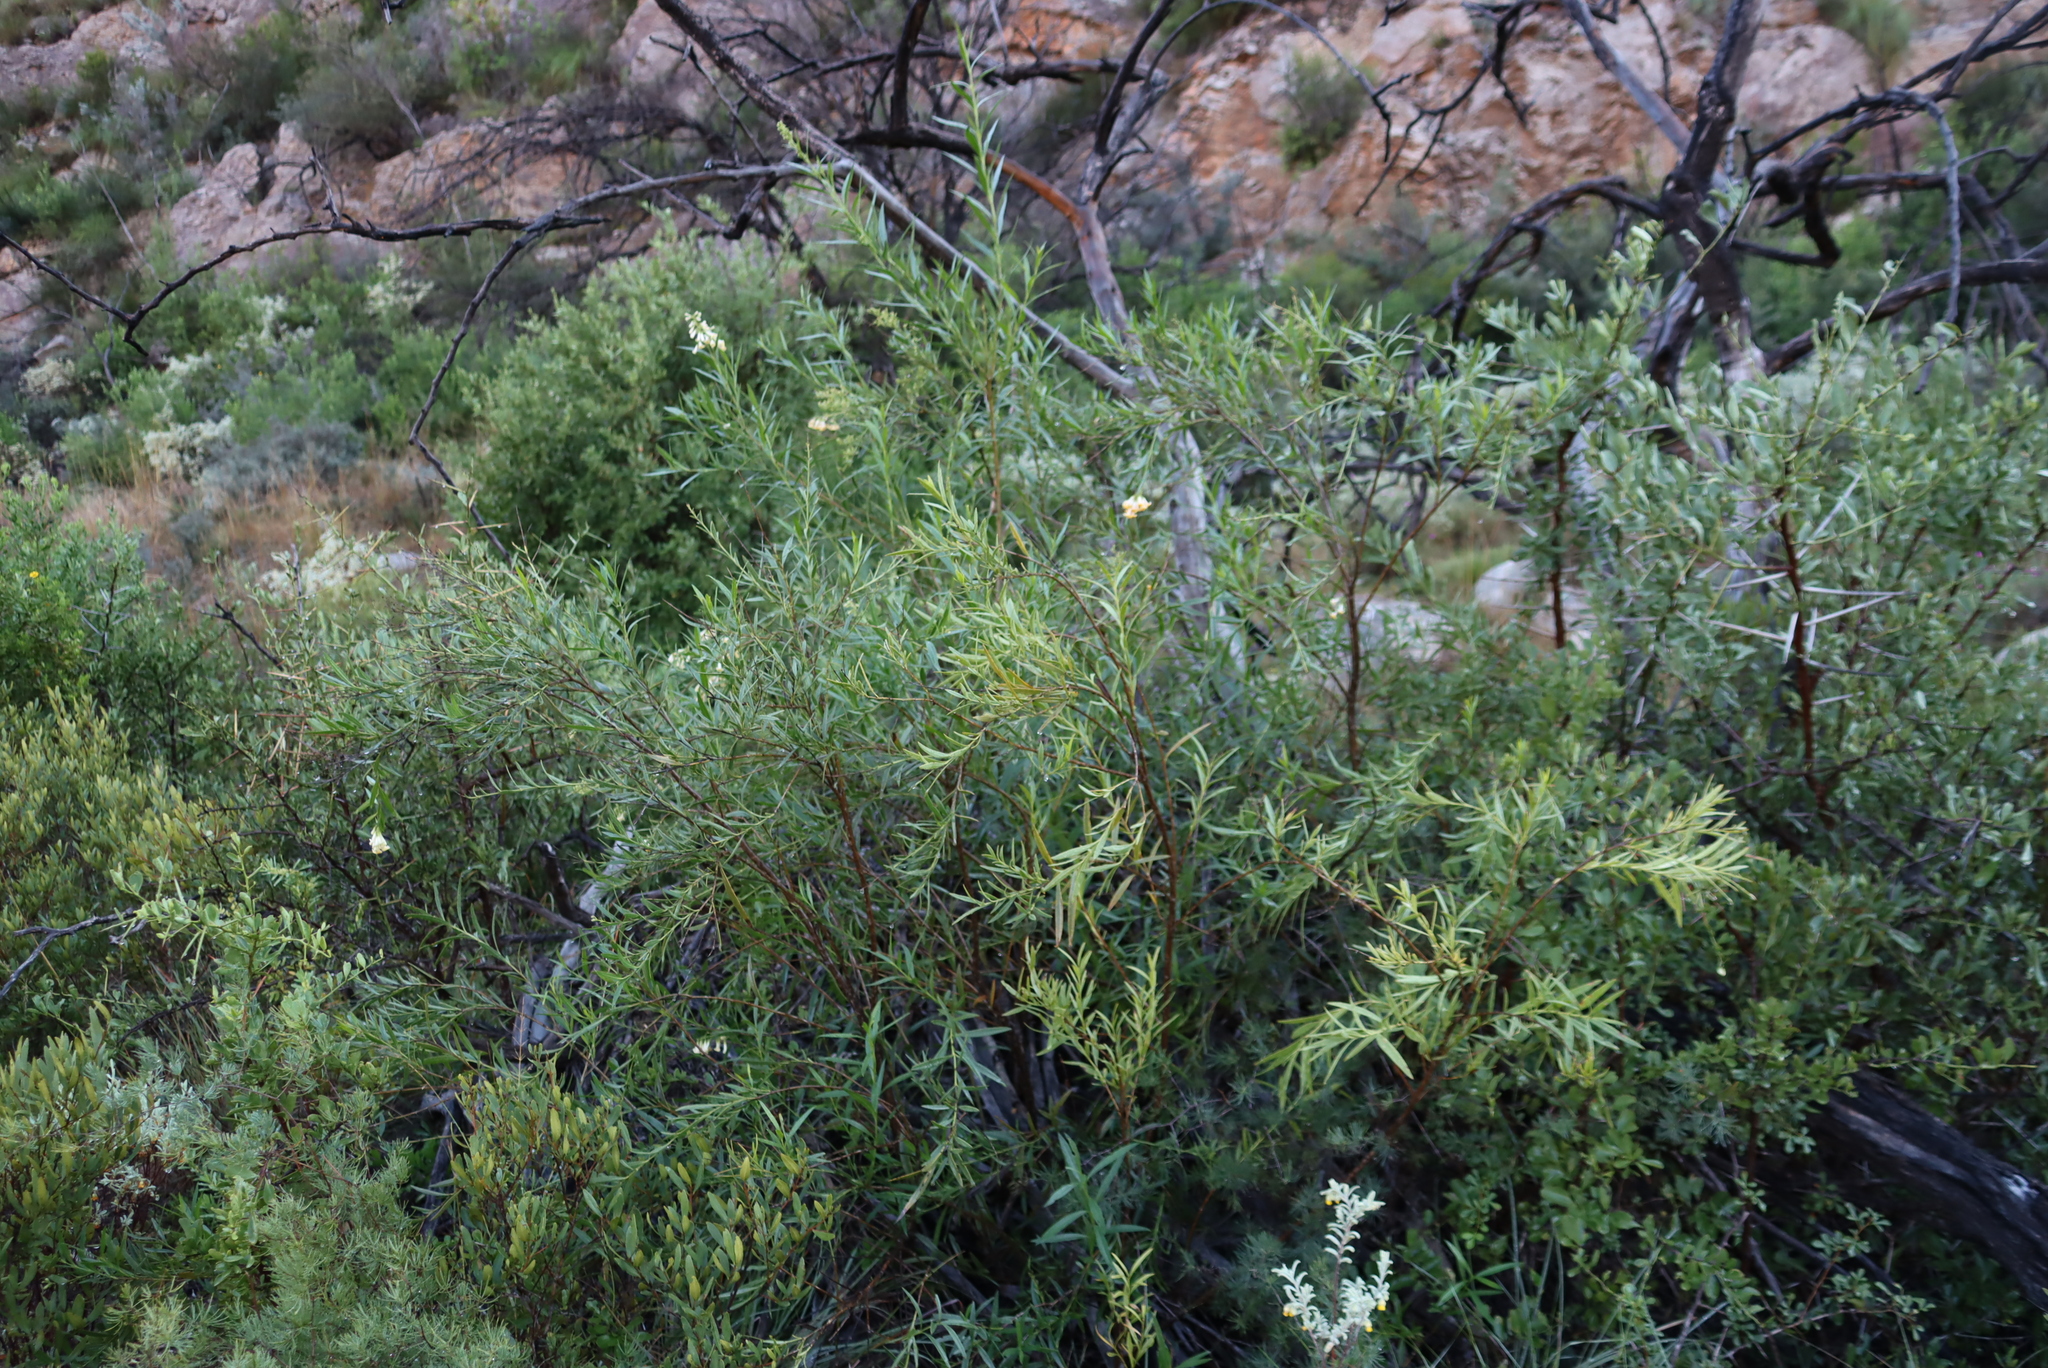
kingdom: Plantae
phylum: Tracheophyta
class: Magnoliopsida
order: Lamiales
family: Scrophulariaceae
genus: Freylinia
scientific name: Freylinia lanceolata
